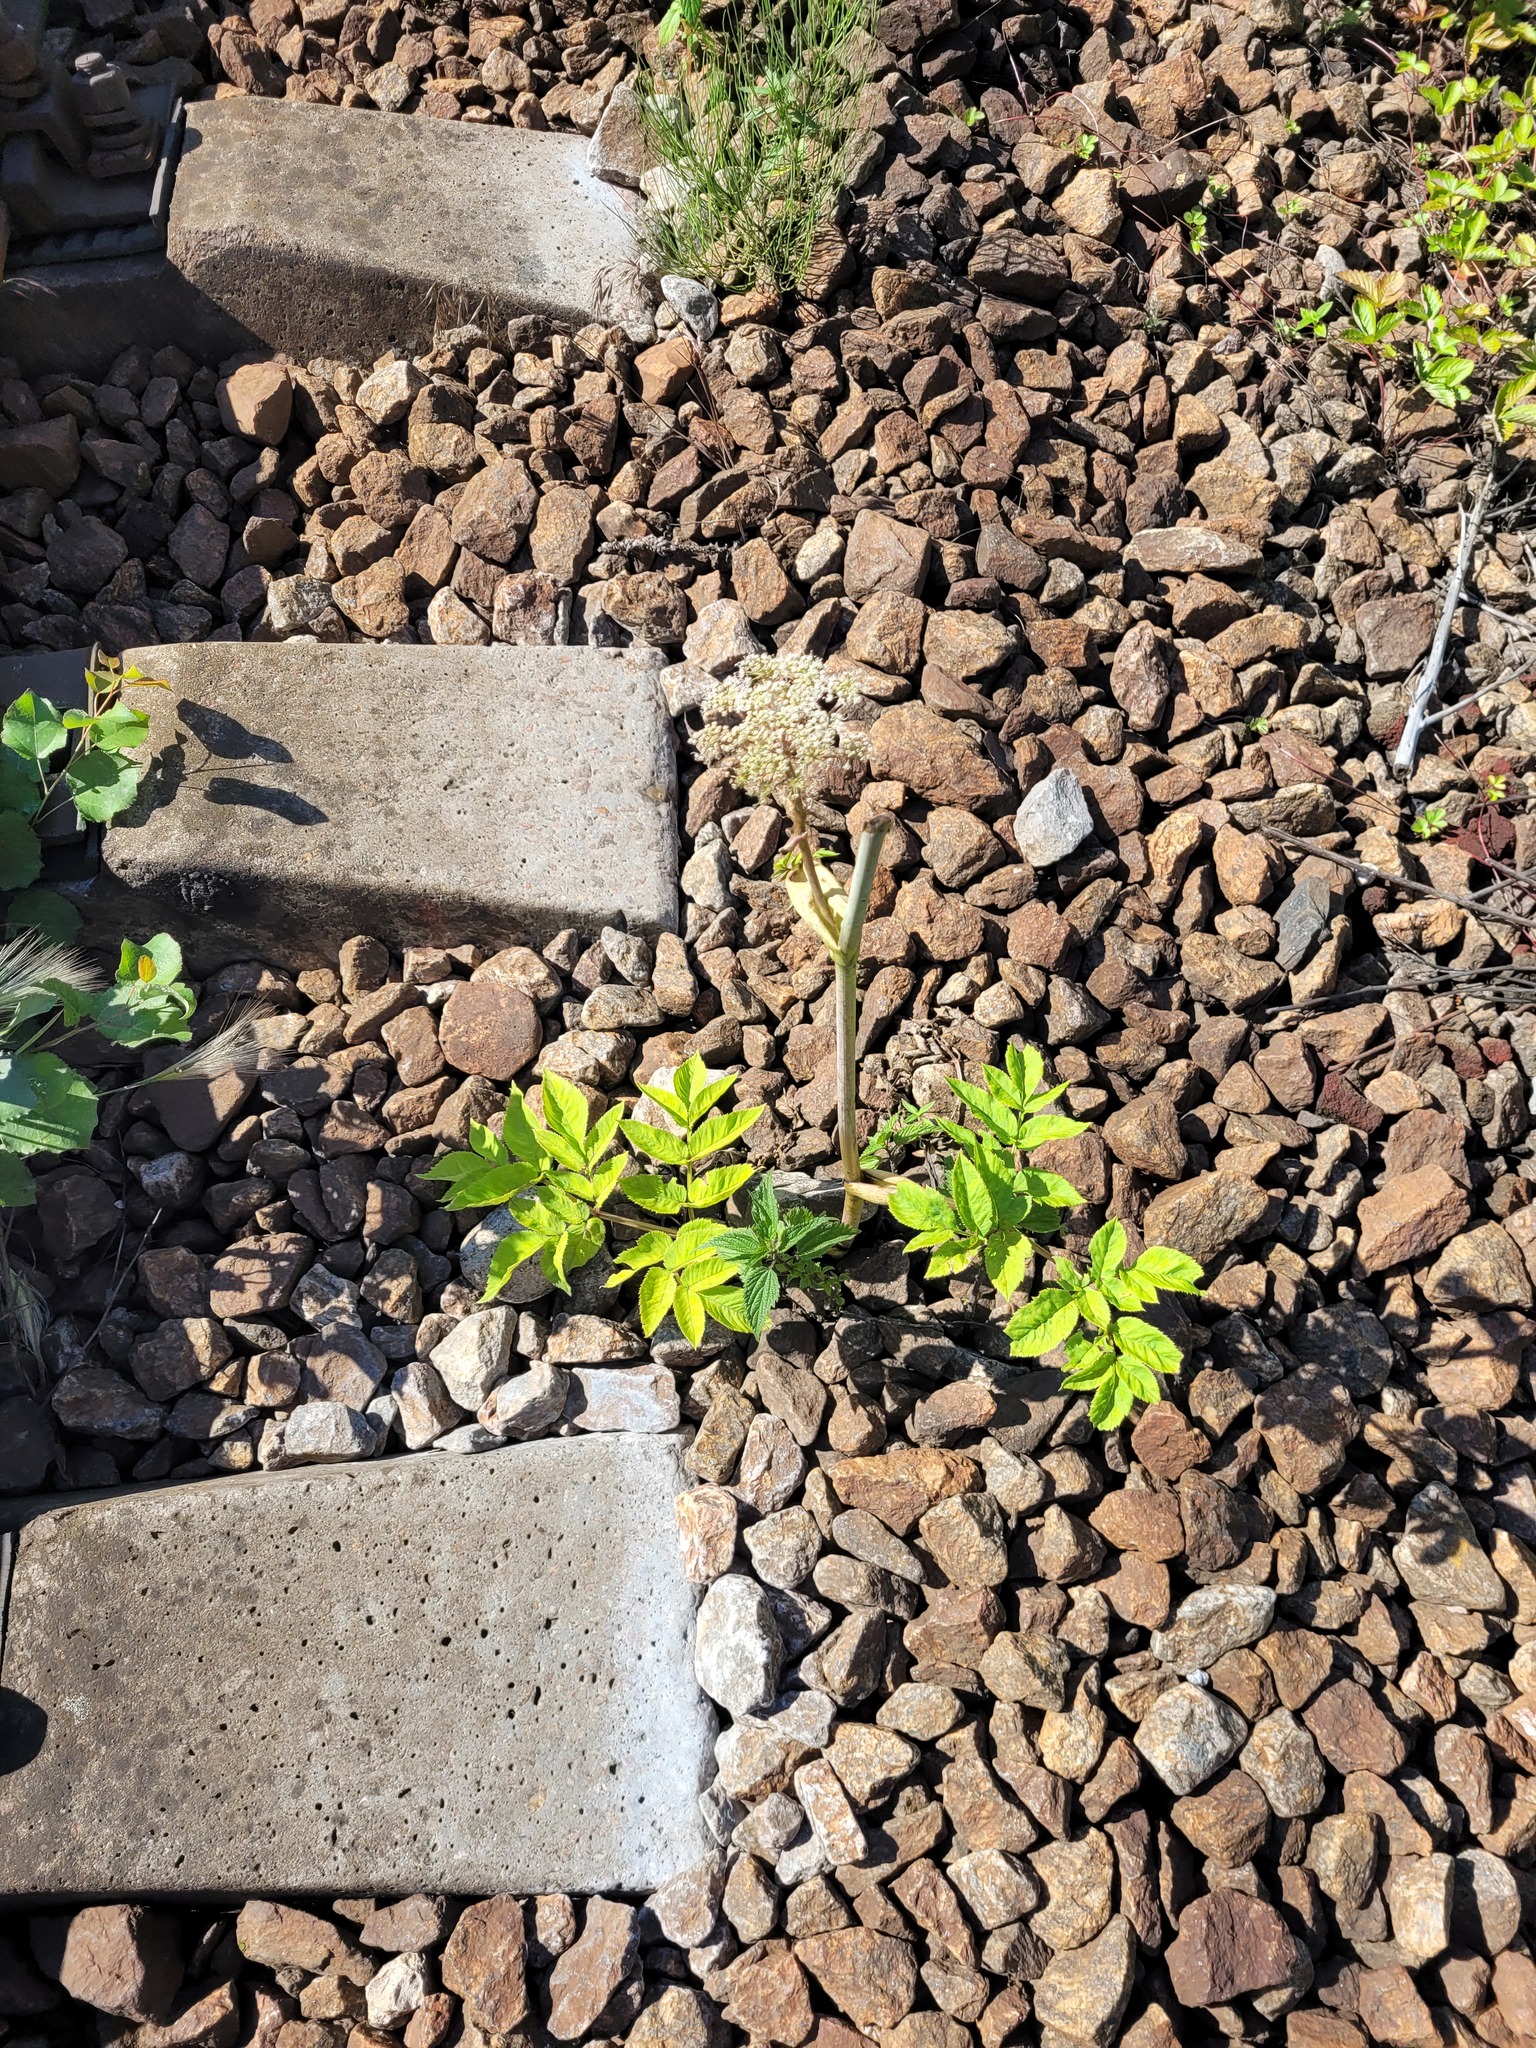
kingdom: Plantae
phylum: Tracheophyta
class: Magnoliopsida
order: Apiales
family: Apiaceae
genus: Angelica
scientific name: Angelica sylvestris
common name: Wild angelica
